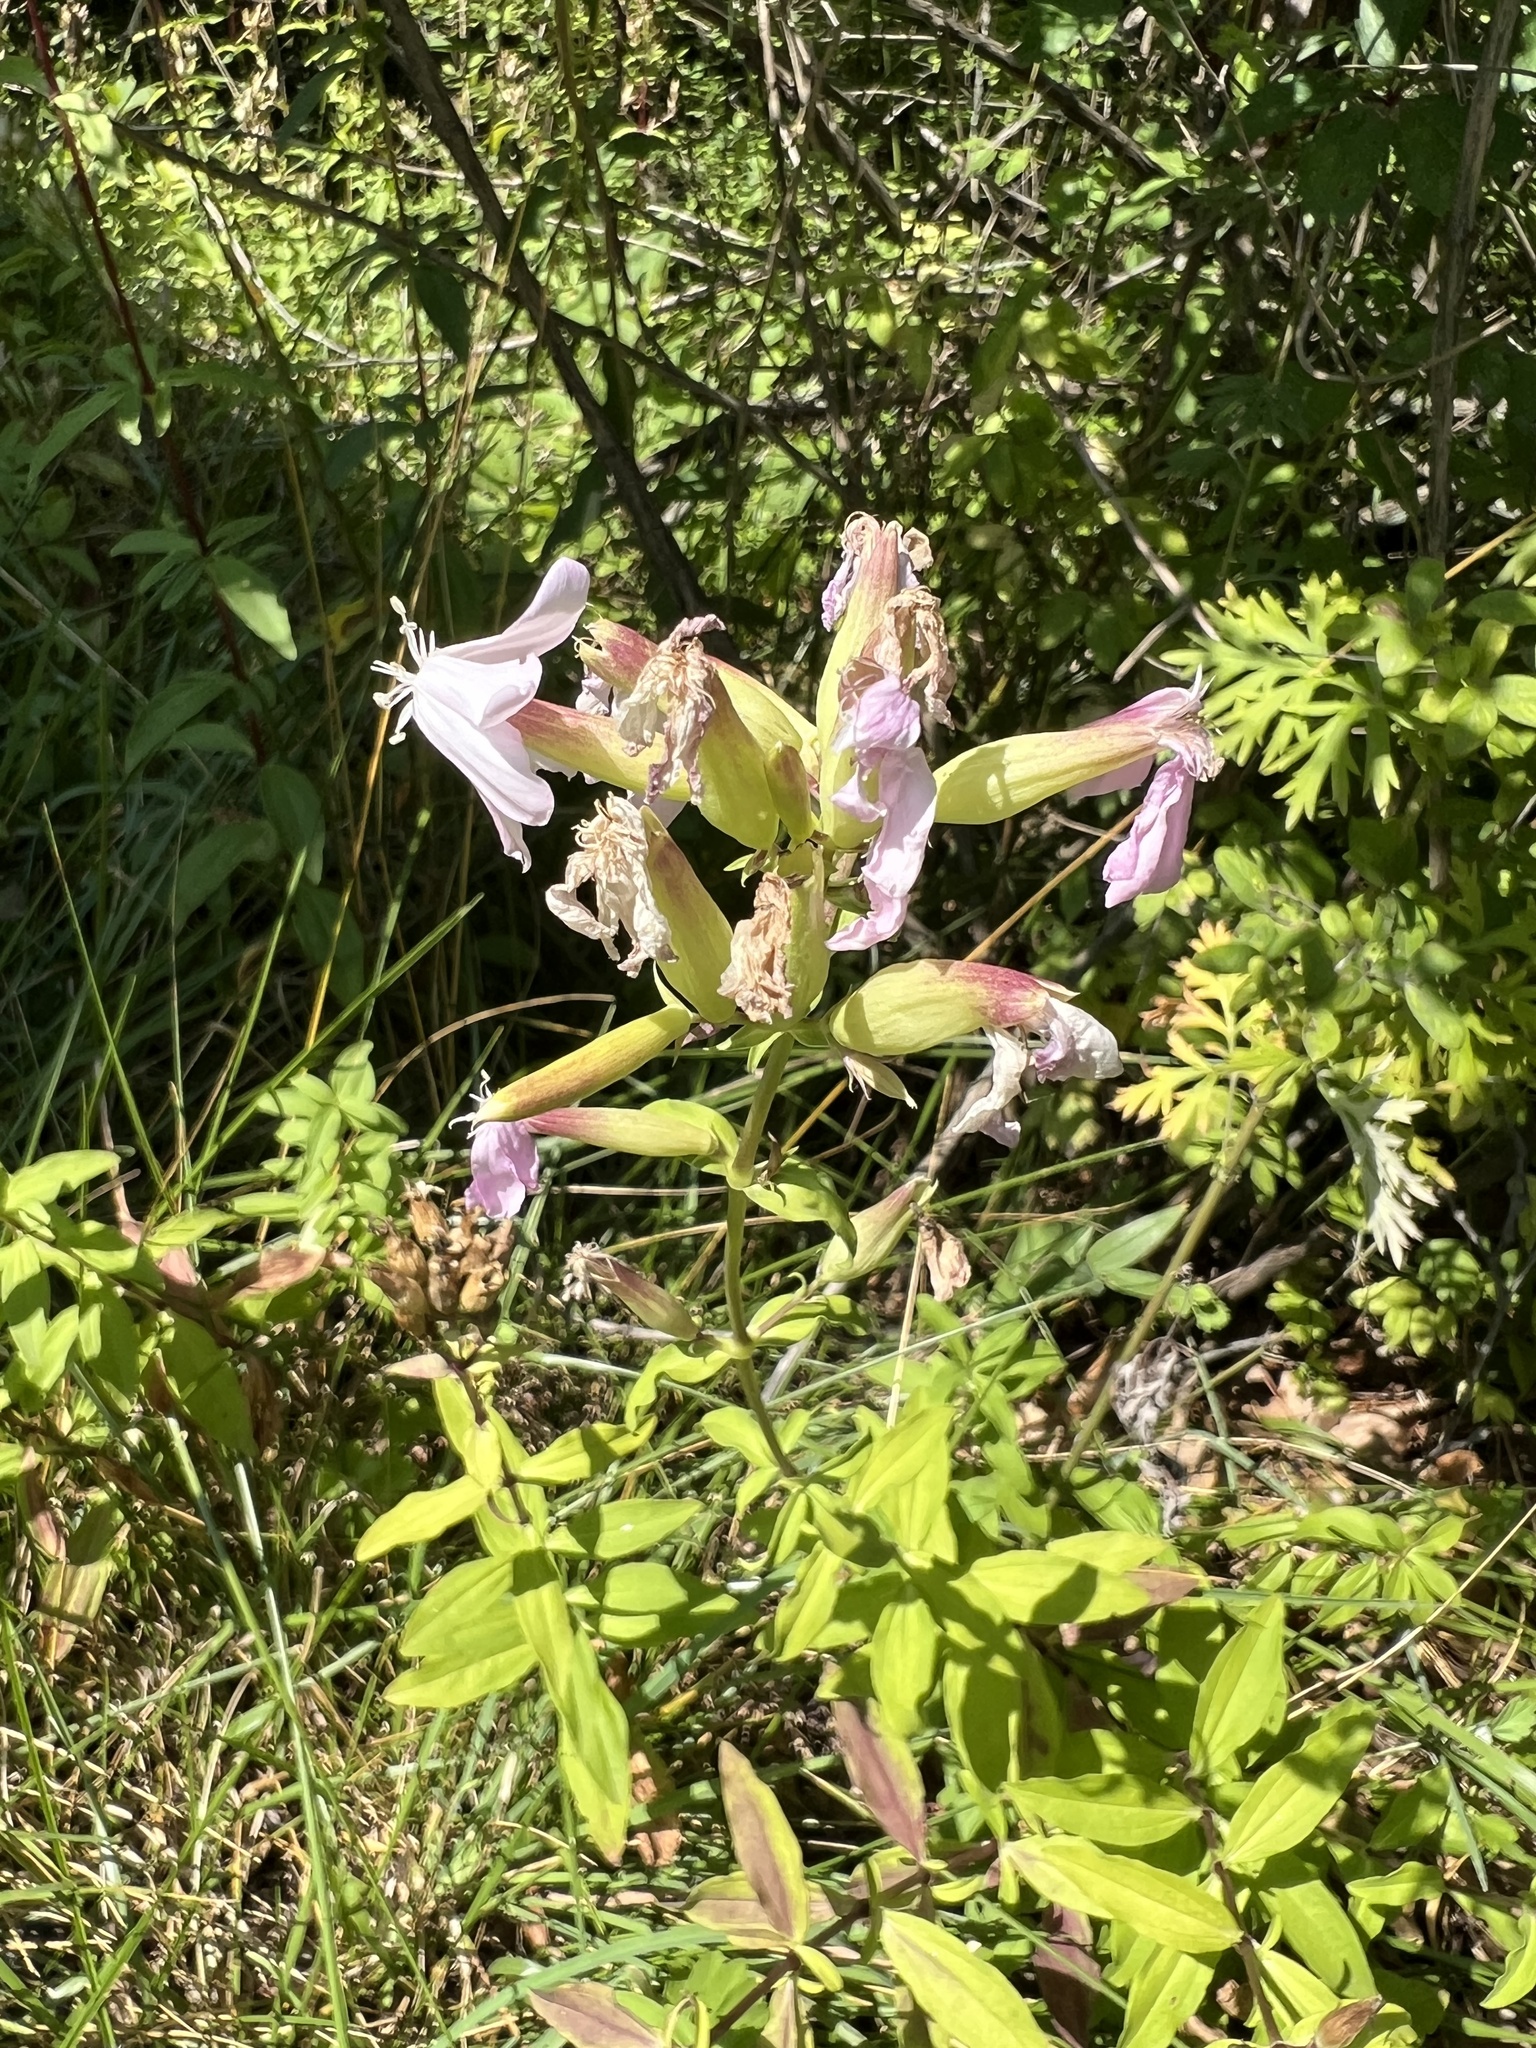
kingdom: Plantae
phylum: Tracheophyta
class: Magnoliopsida
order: Caryophyllales
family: Caryophyllaceae
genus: Saponaria
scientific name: Saponaria officinalis
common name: Soapwort
